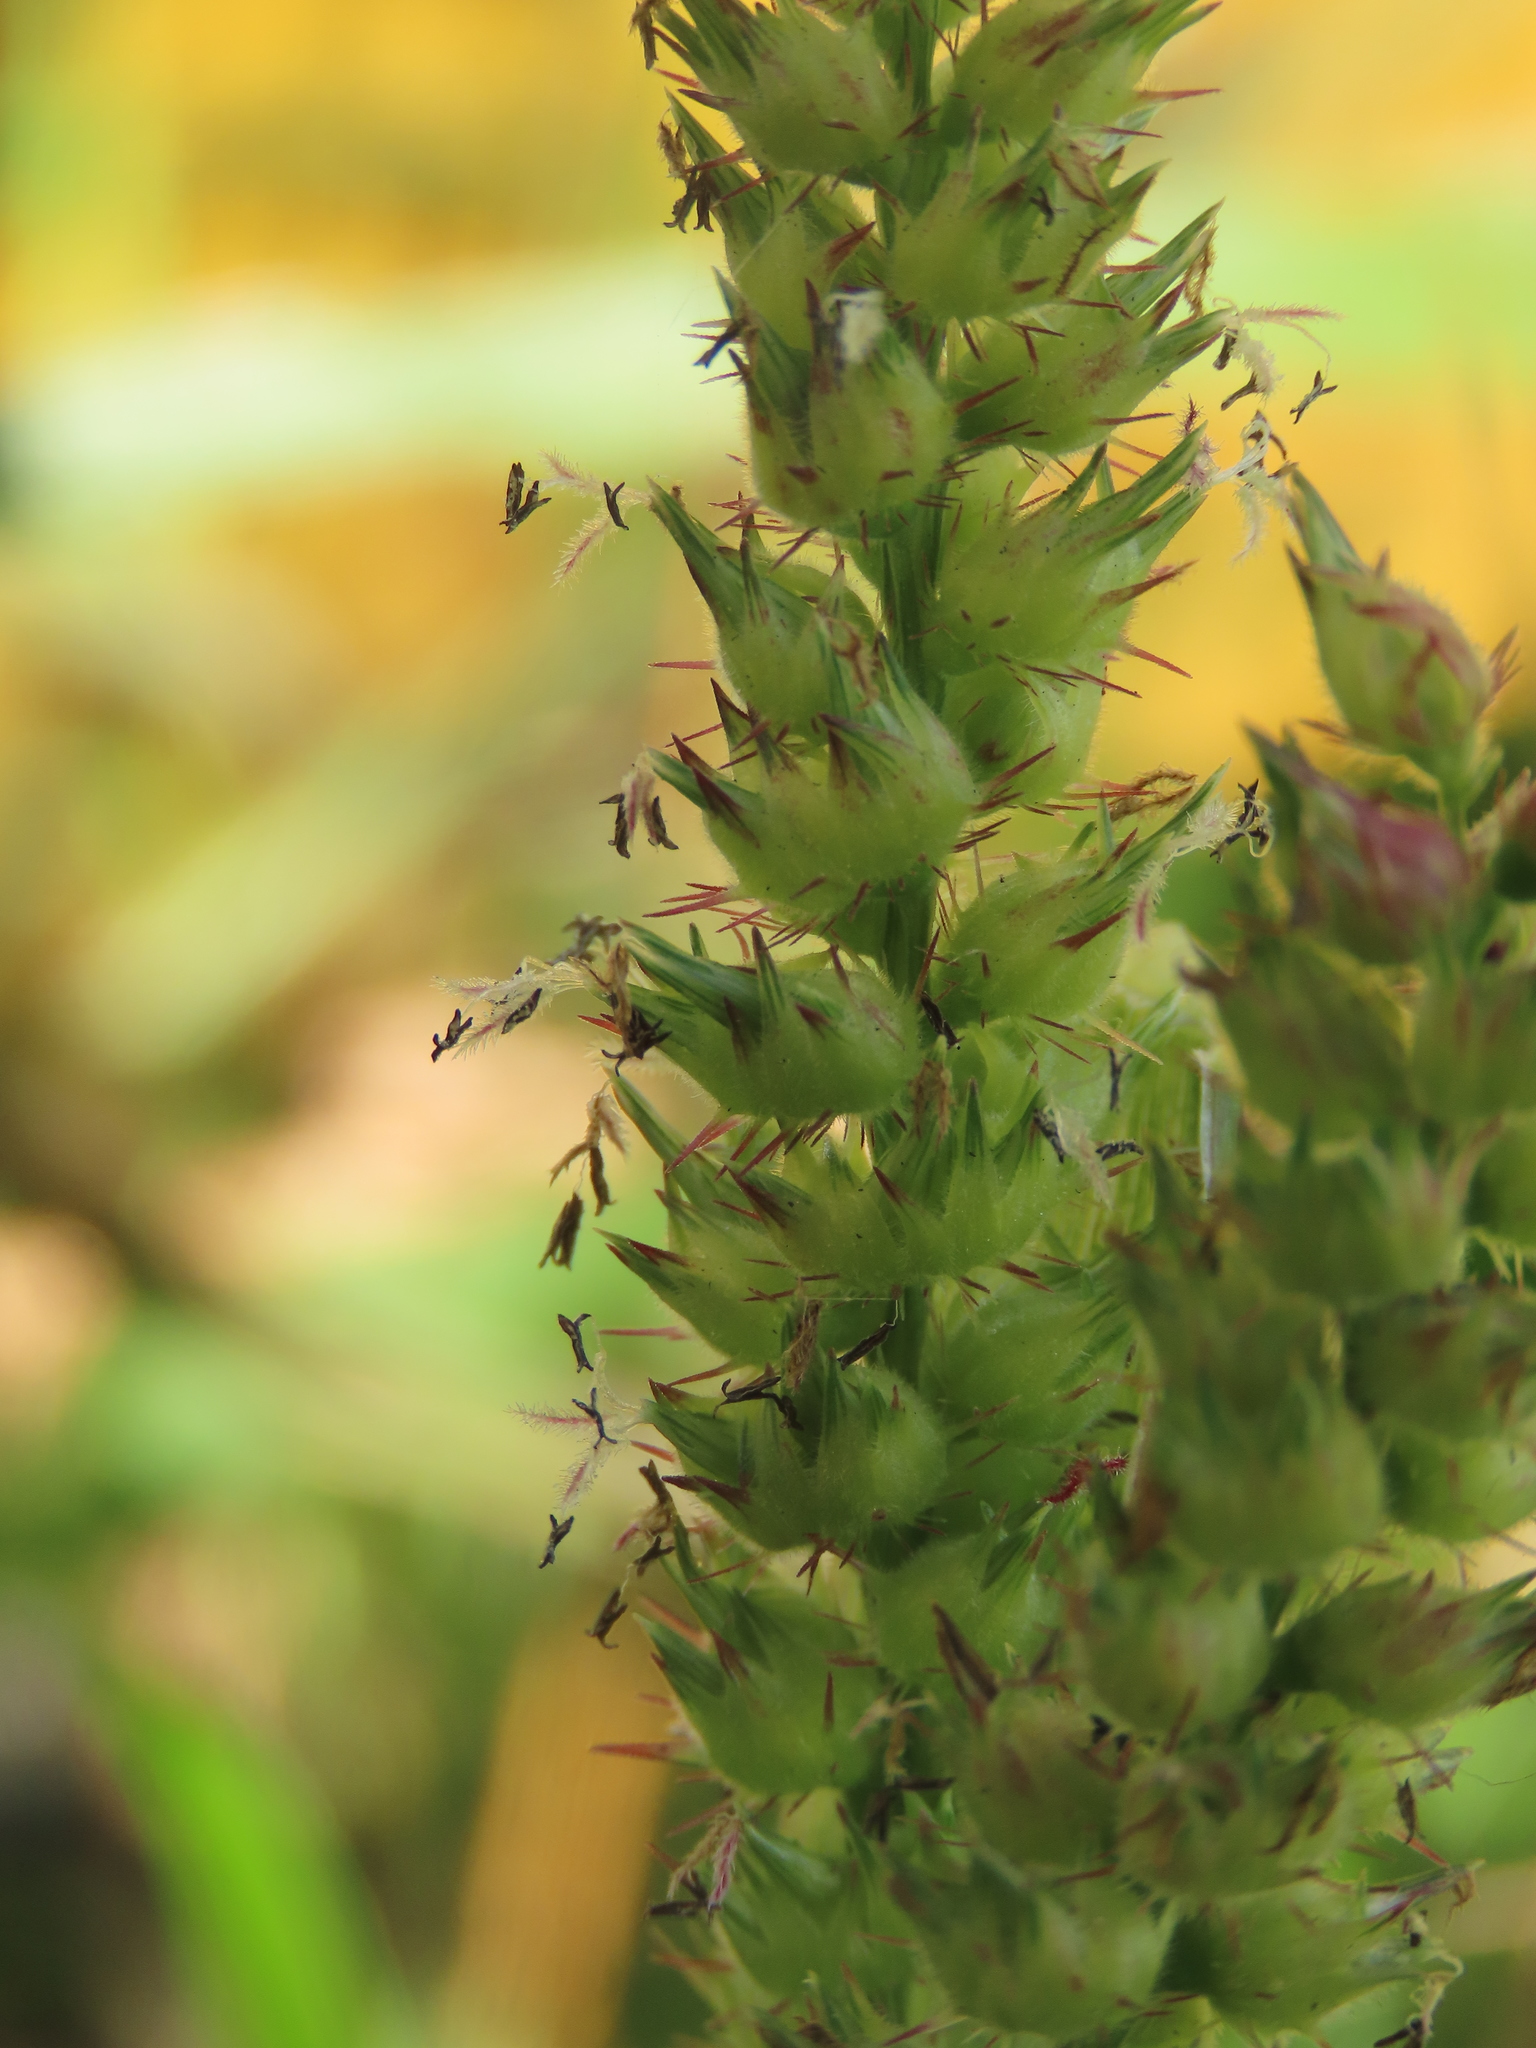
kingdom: Plantae
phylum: Tracheophyta
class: Liliopsida
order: Poales
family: Poaceae
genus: Cenchrus
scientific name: Cenchrus echinatus
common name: Southern sandbur
